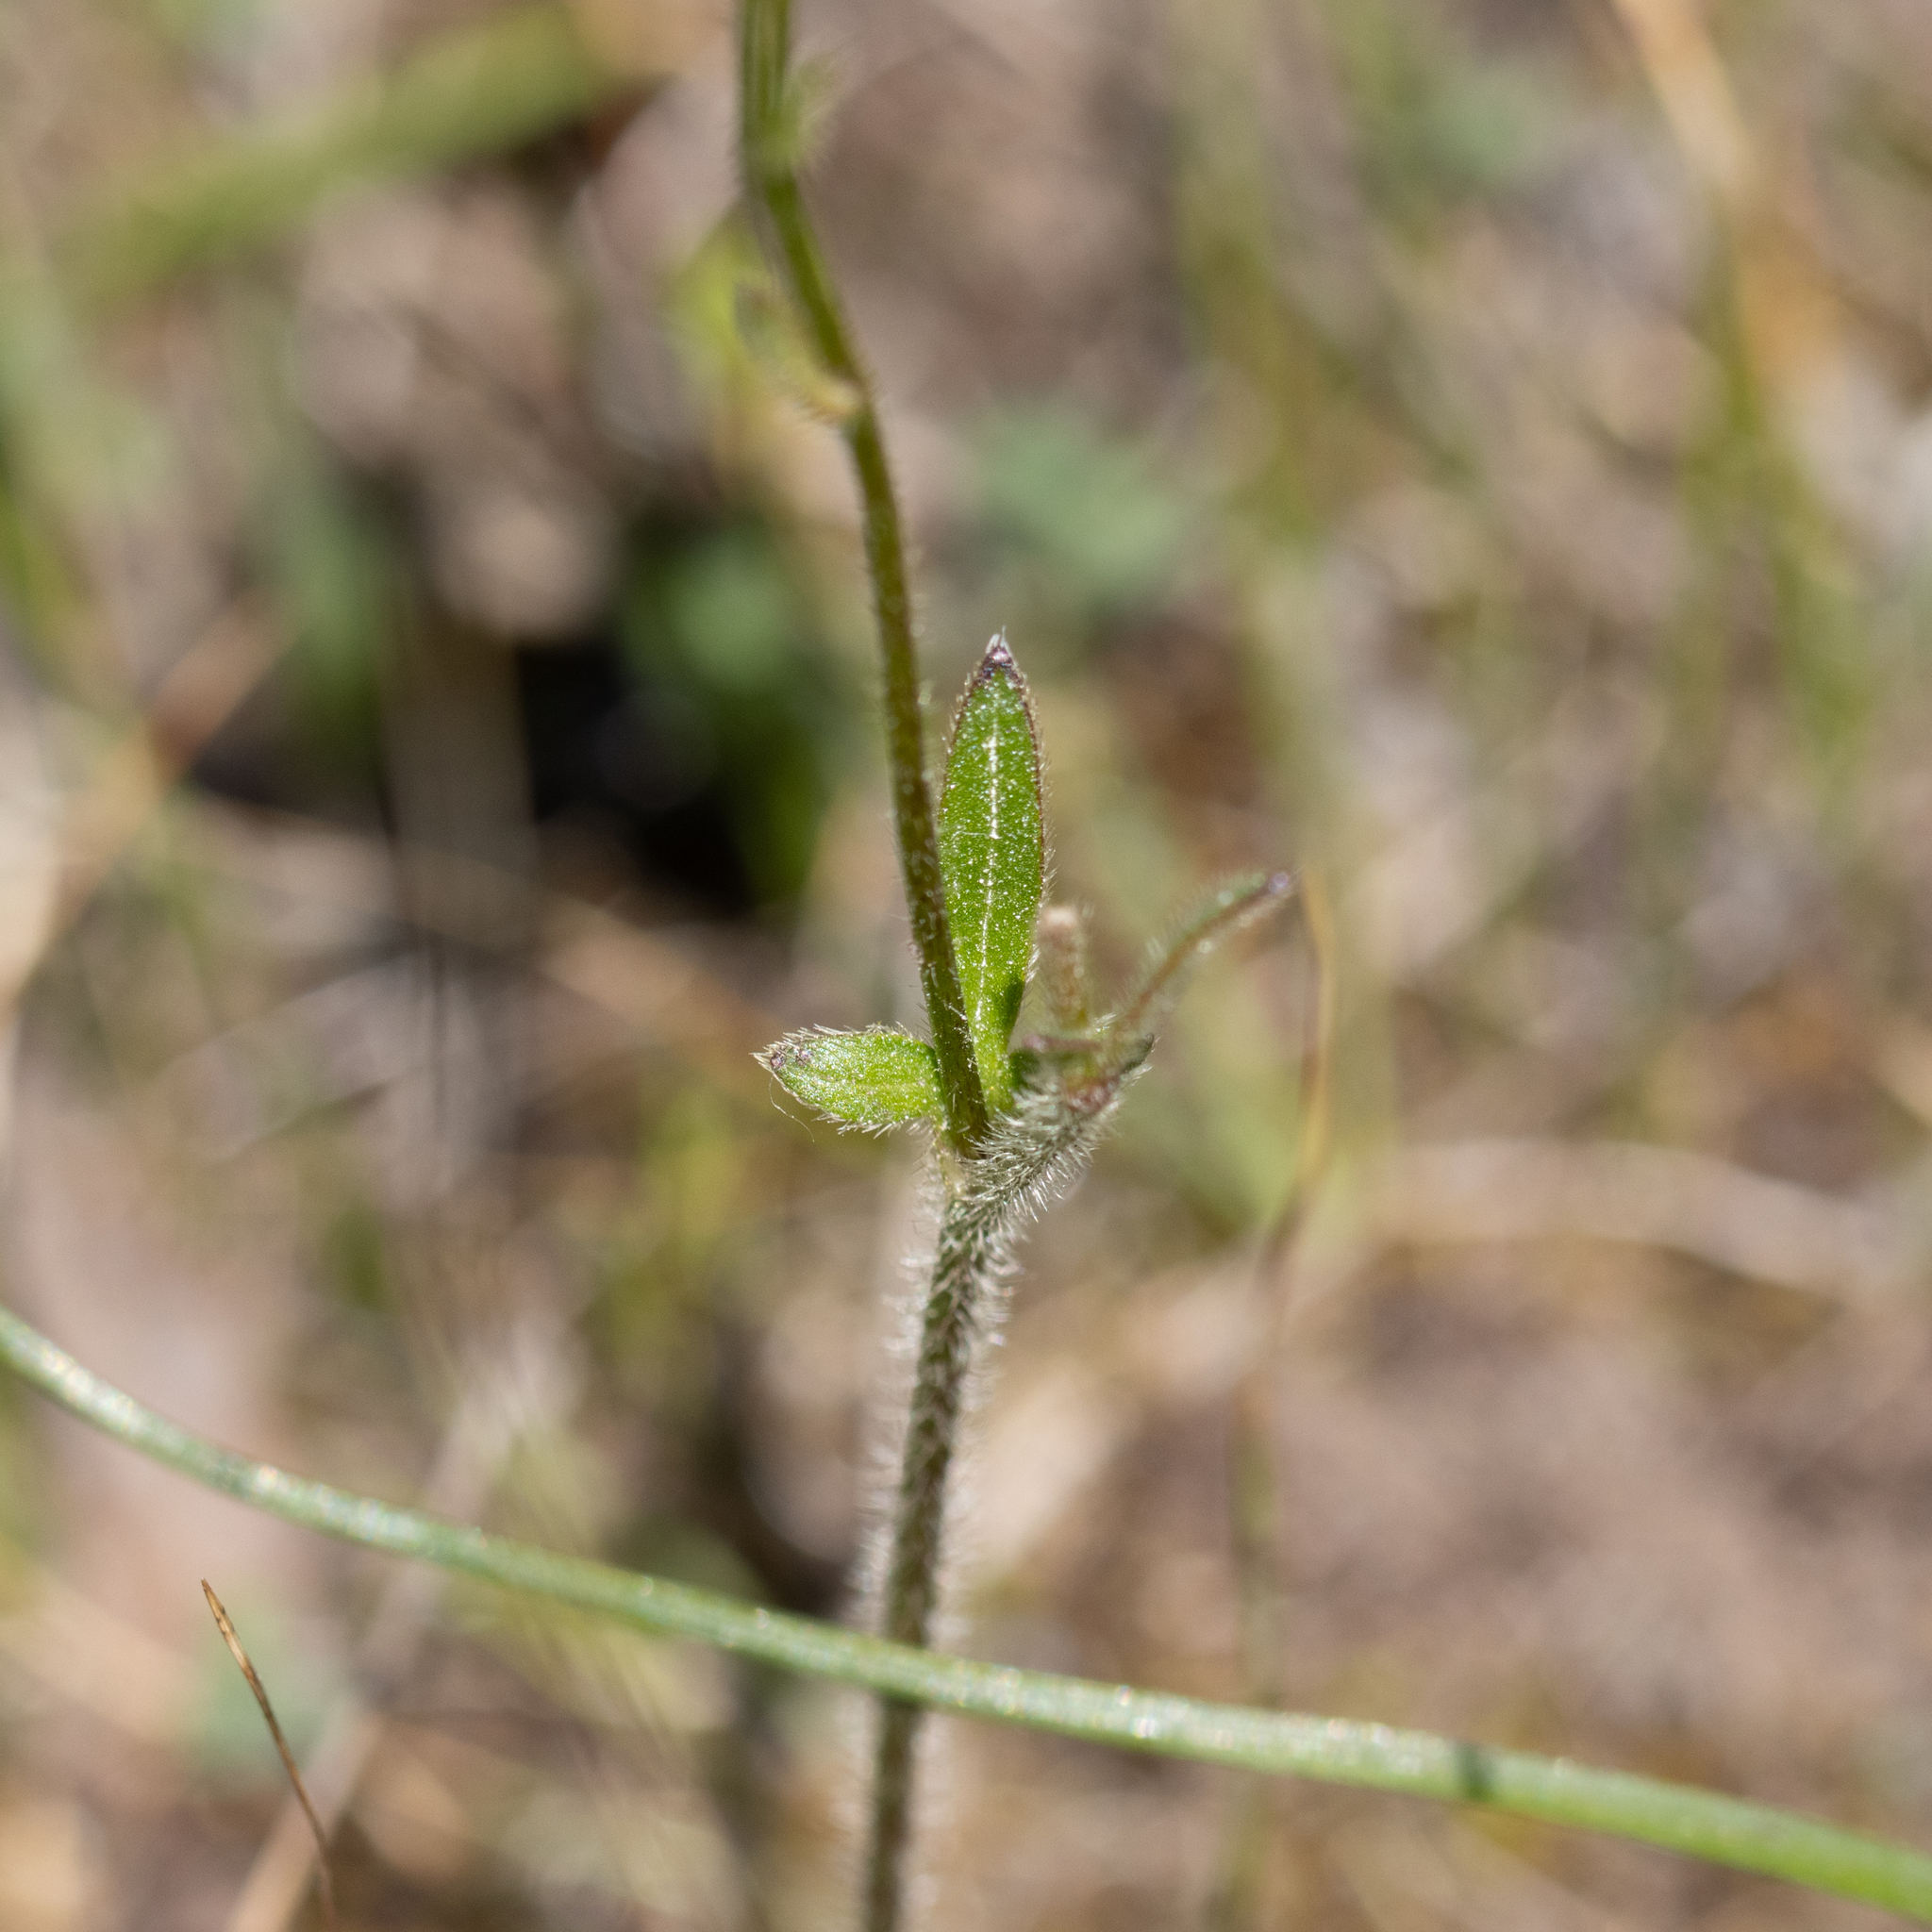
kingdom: Plantae
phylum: Tracheophyta
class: Magnoliopsida
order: Ranunculales
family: Ranunculaceae
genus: Ranunculus
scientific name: Ranunculus lappaceus
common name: Australian buttercup
